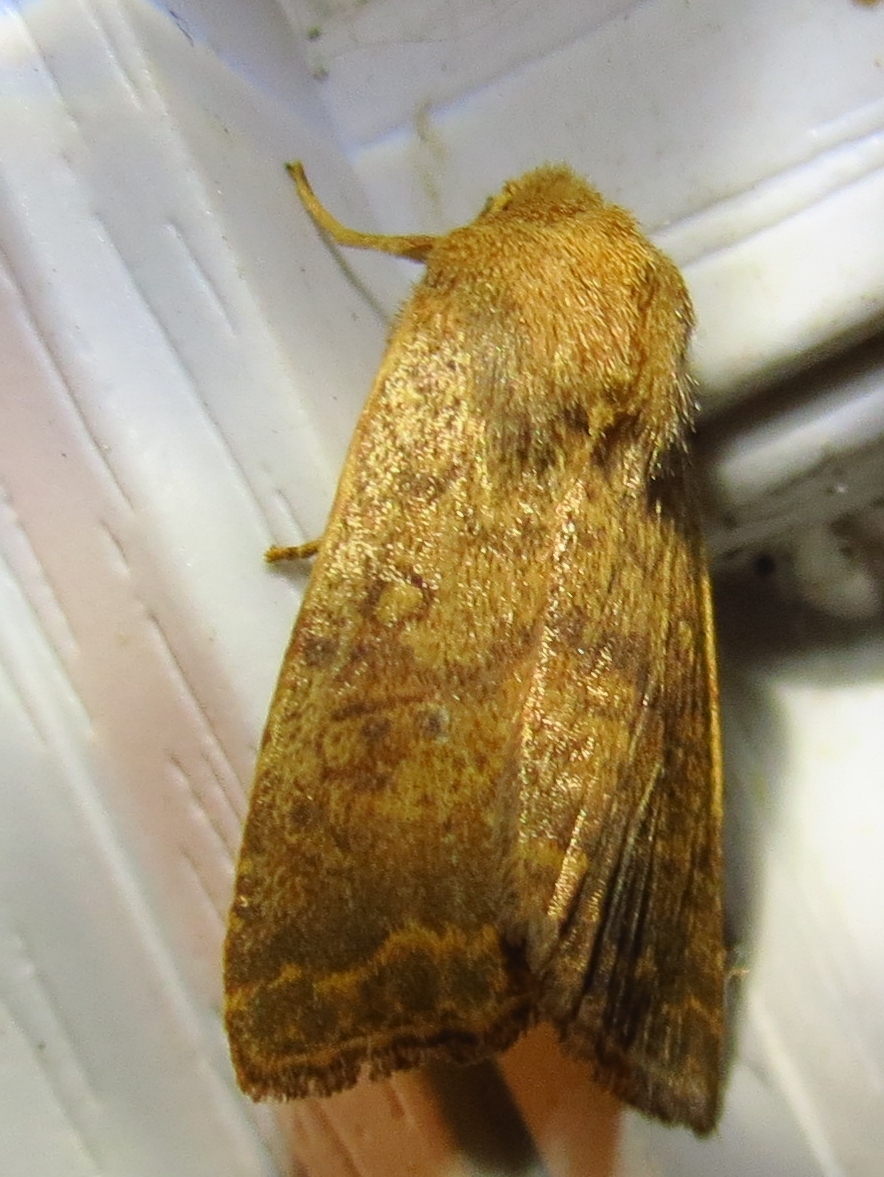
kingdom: Animalia
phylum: Arthropoda
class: Insecta
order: Lepidoptera
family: Noctuidae
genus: Agrochola
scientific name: Agrochola bicolorago
